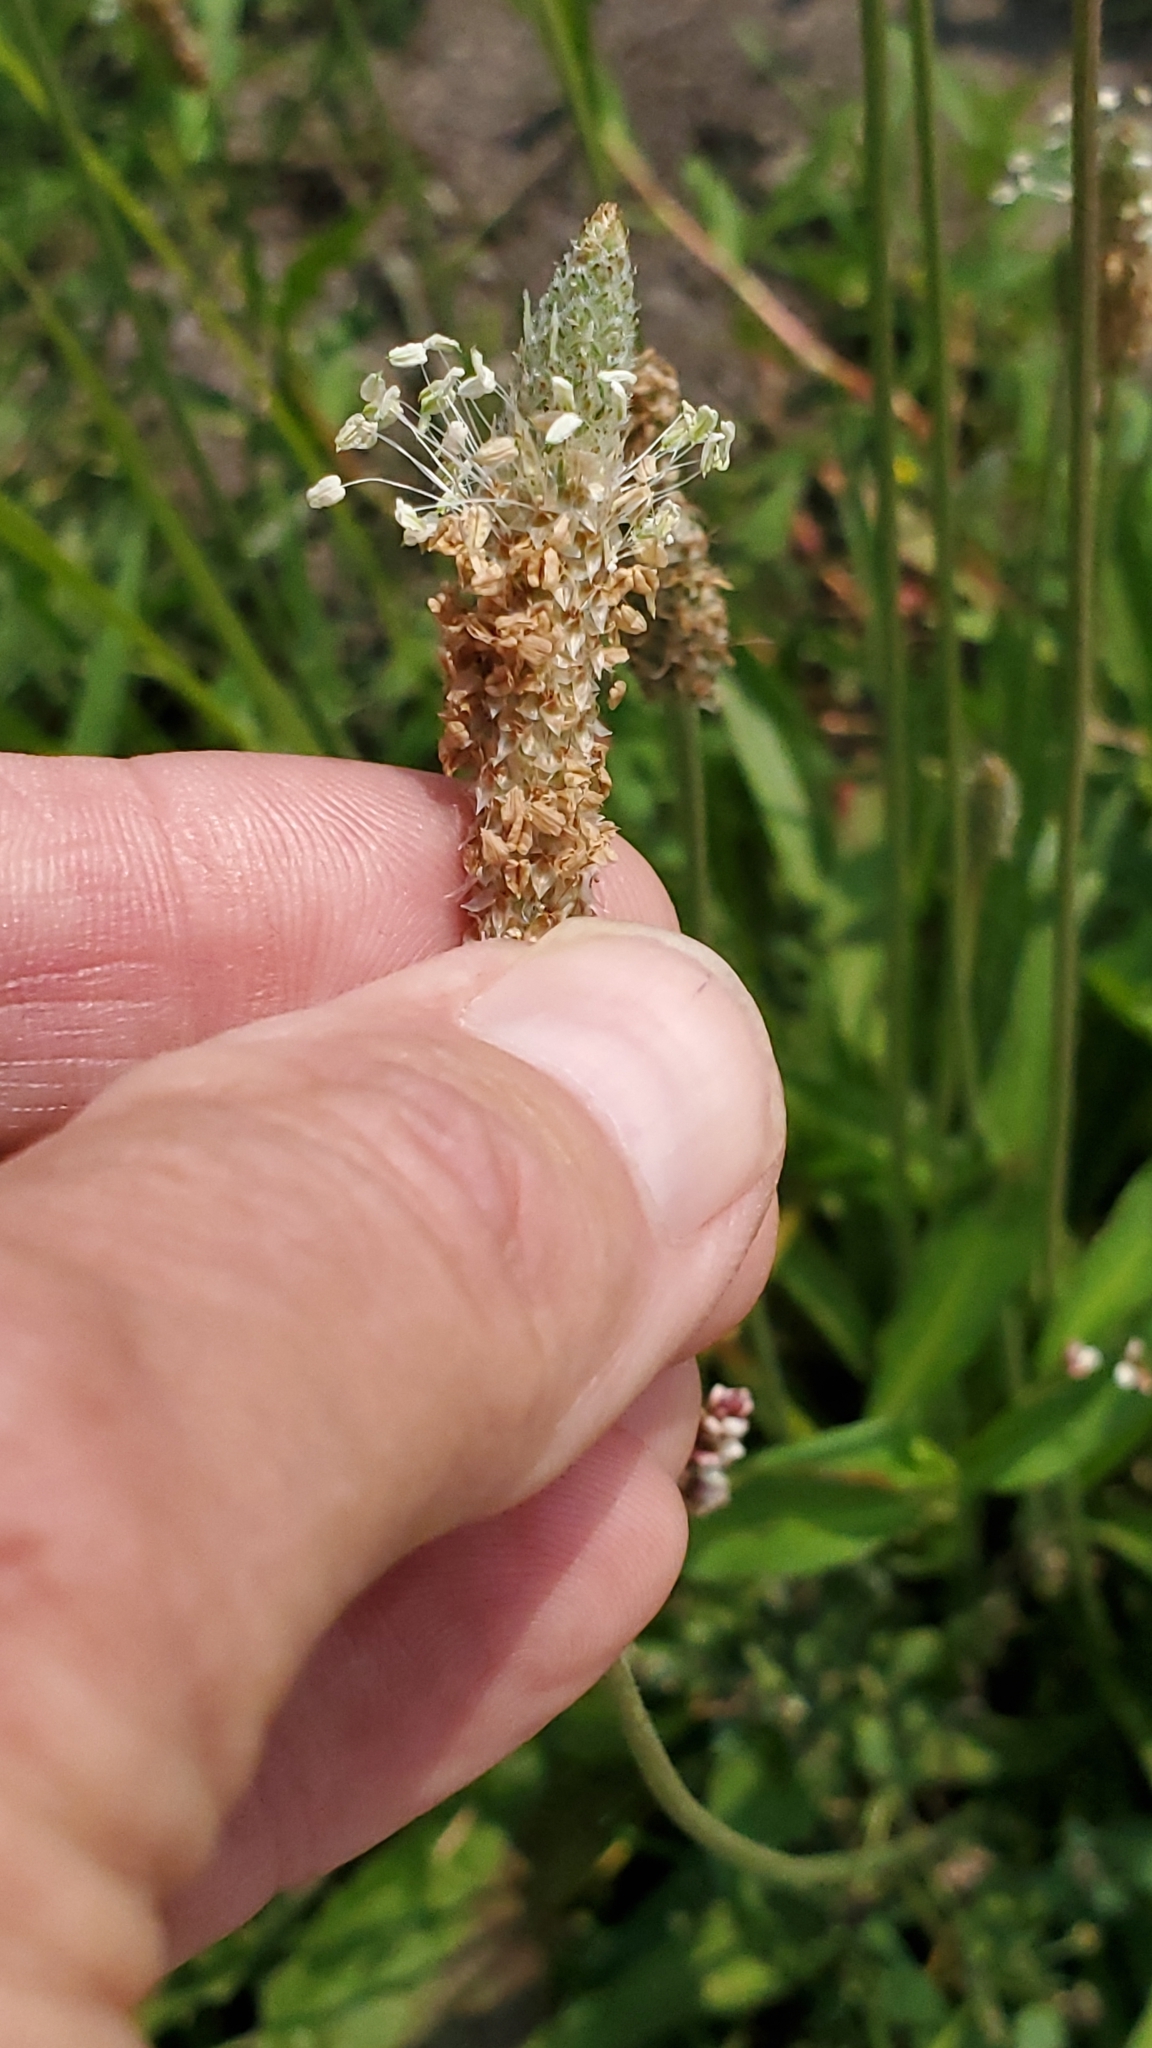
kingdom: Plantae
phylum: Tracheophyta
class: Magnoliopsida
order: Lamiales
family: Plantaginaceae
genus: Plantago
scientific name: Plantago lanceolata
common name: Ribwort plantain
